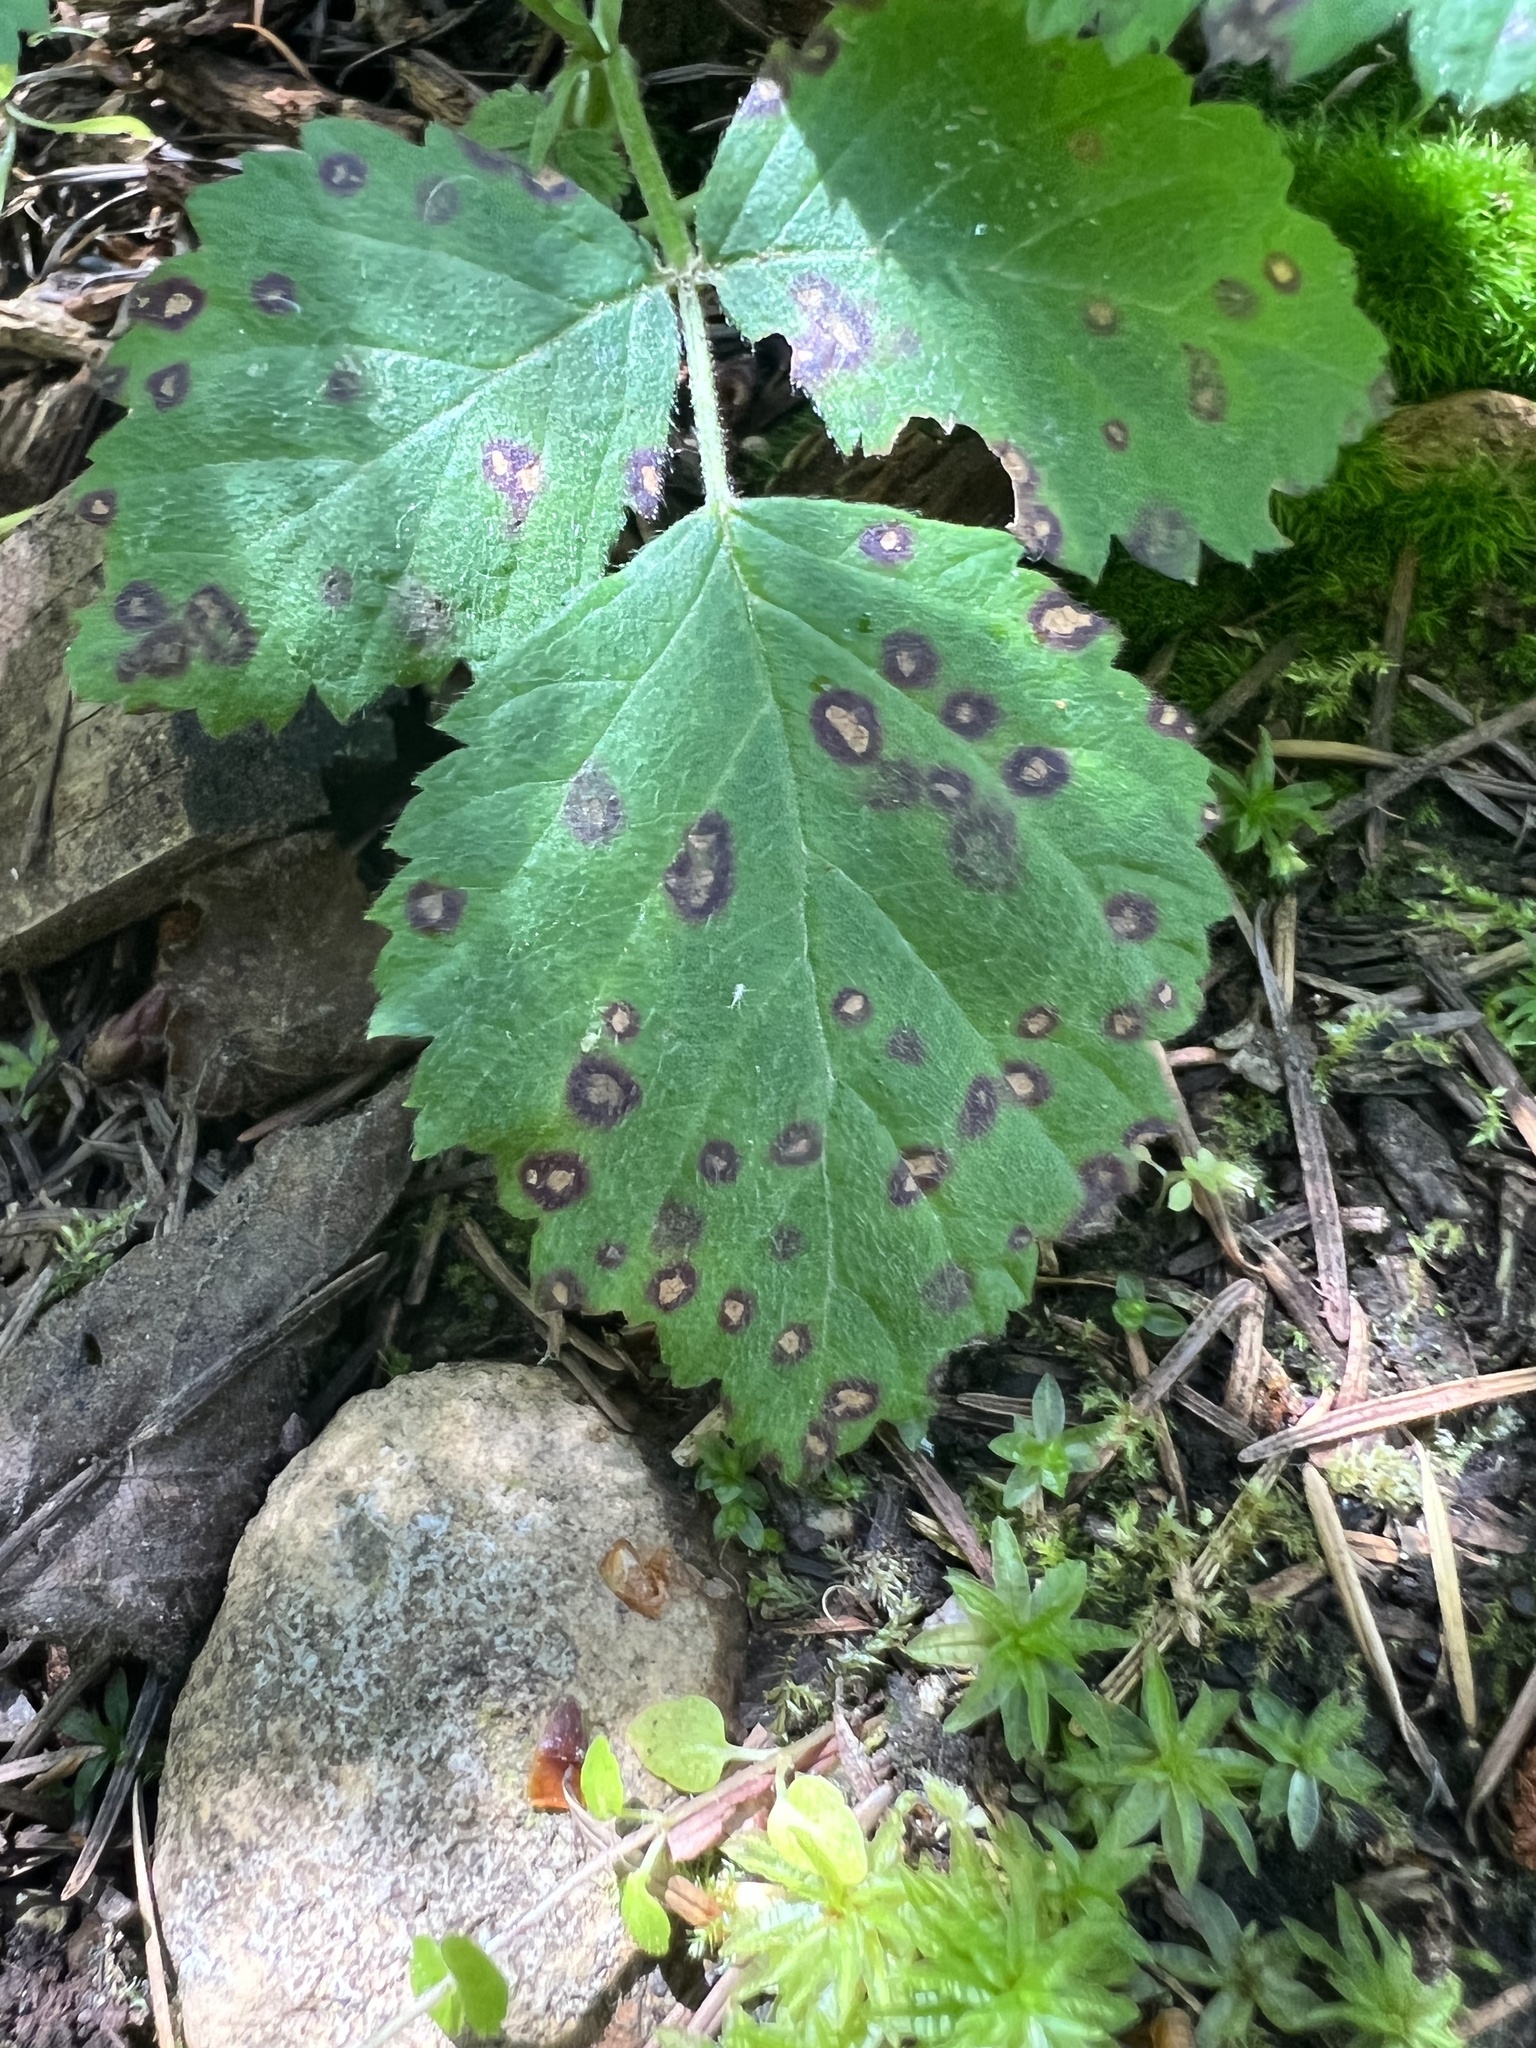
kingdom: Plantae
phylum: Tracheophyta
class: Magnoliopsida
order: Rosales
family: Rosaceae
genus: Rubus
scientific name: Rubus ursinus
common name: Pacific blackberry
